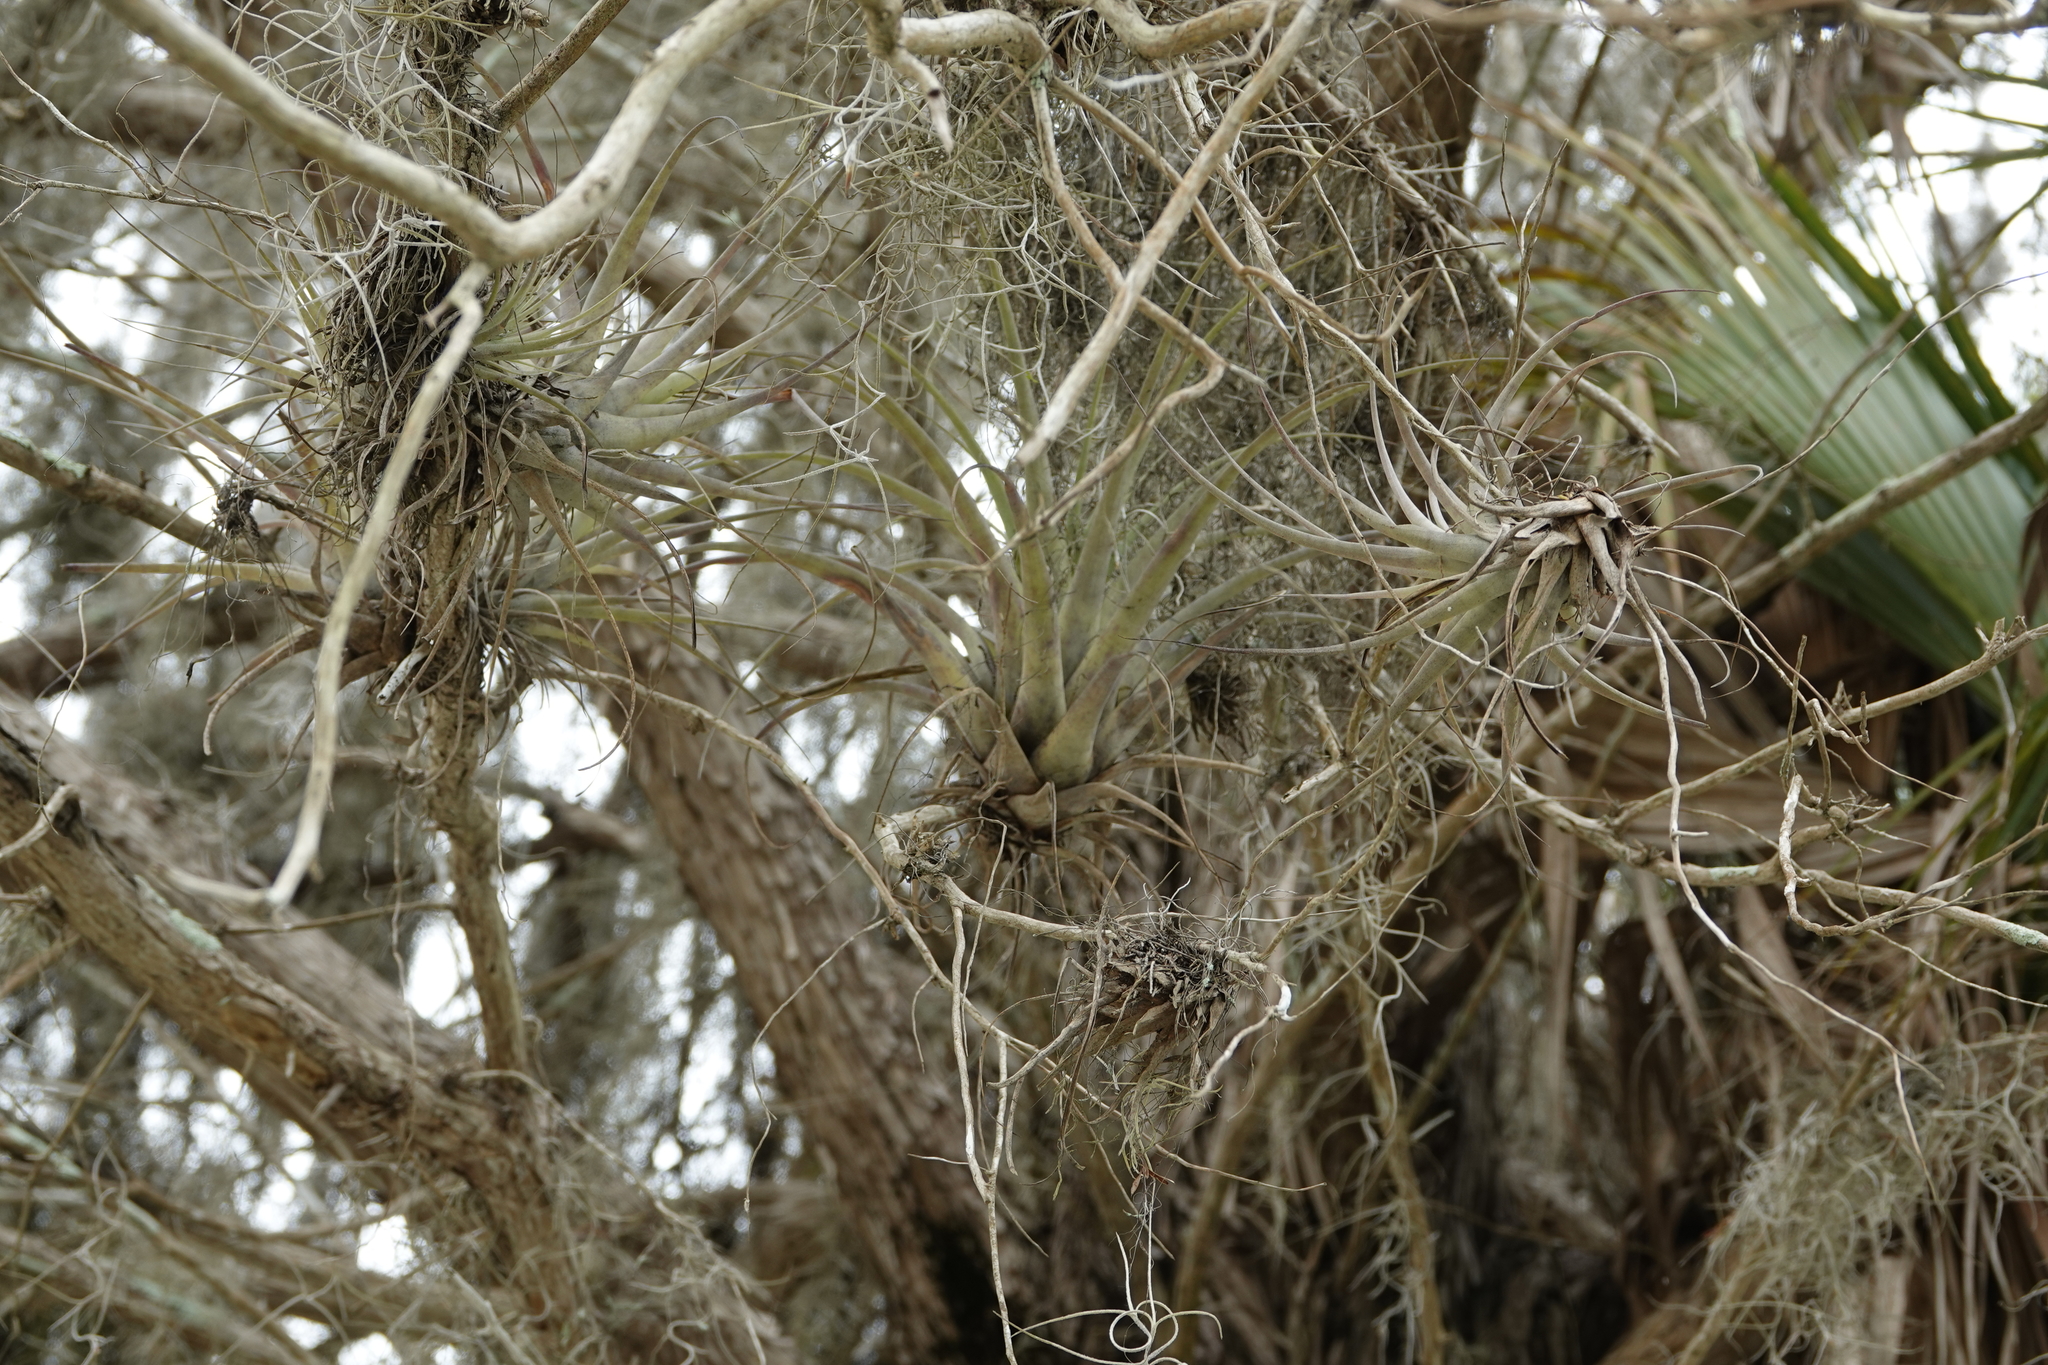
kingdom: Plantae
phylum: Tracheophyta
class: Liliopsida
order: Poales
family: Bromeliaceae
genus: Tillandsia
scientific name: Tillandsia utriculata
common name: Wild pine
